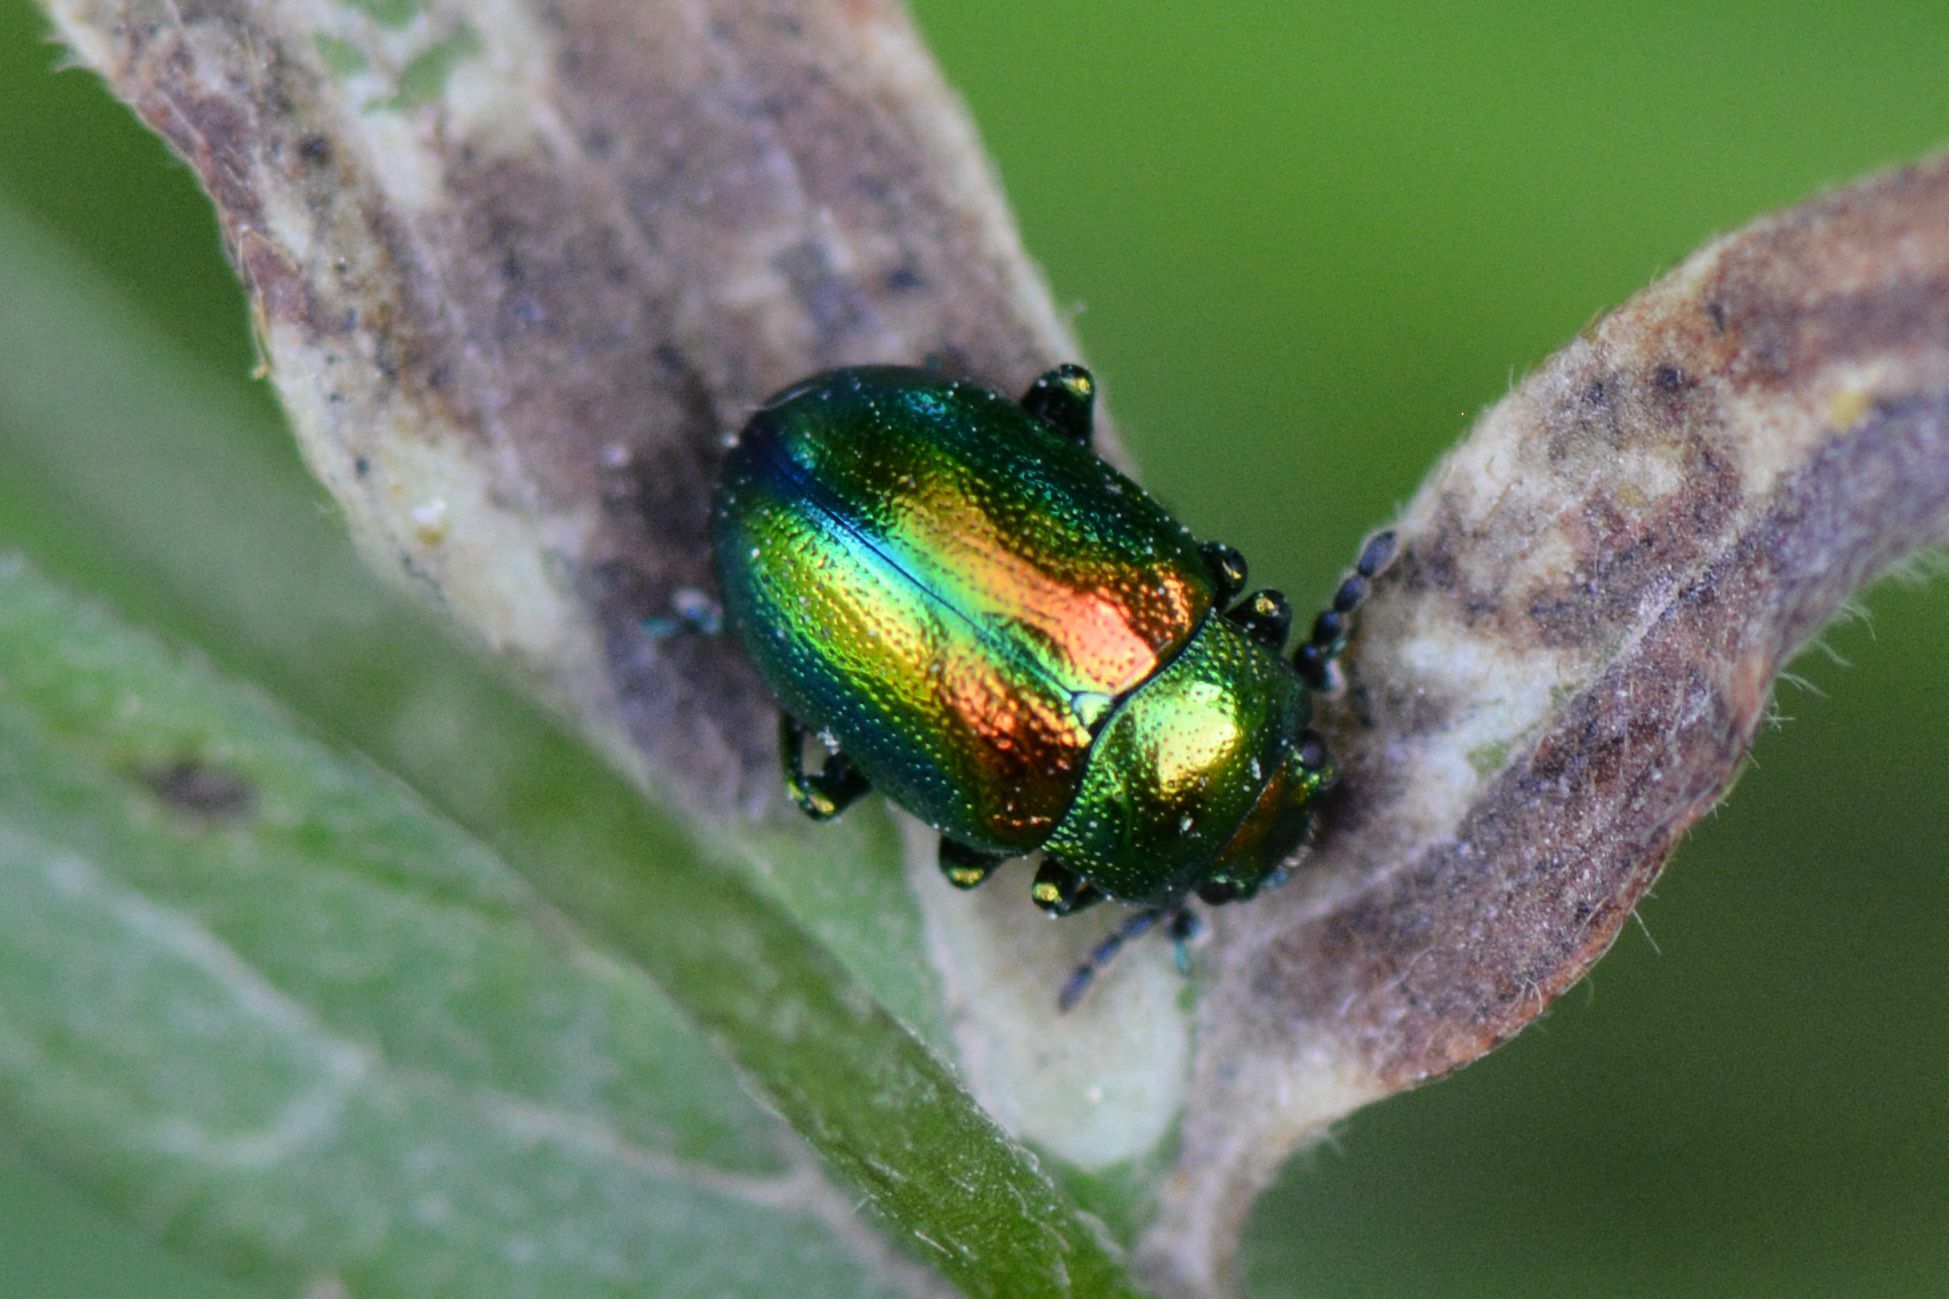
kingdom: Animalia
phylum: Arthropoda
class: Insecta
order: Coleoptera
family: Chrysomelidae
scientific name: Chrysomelidae
